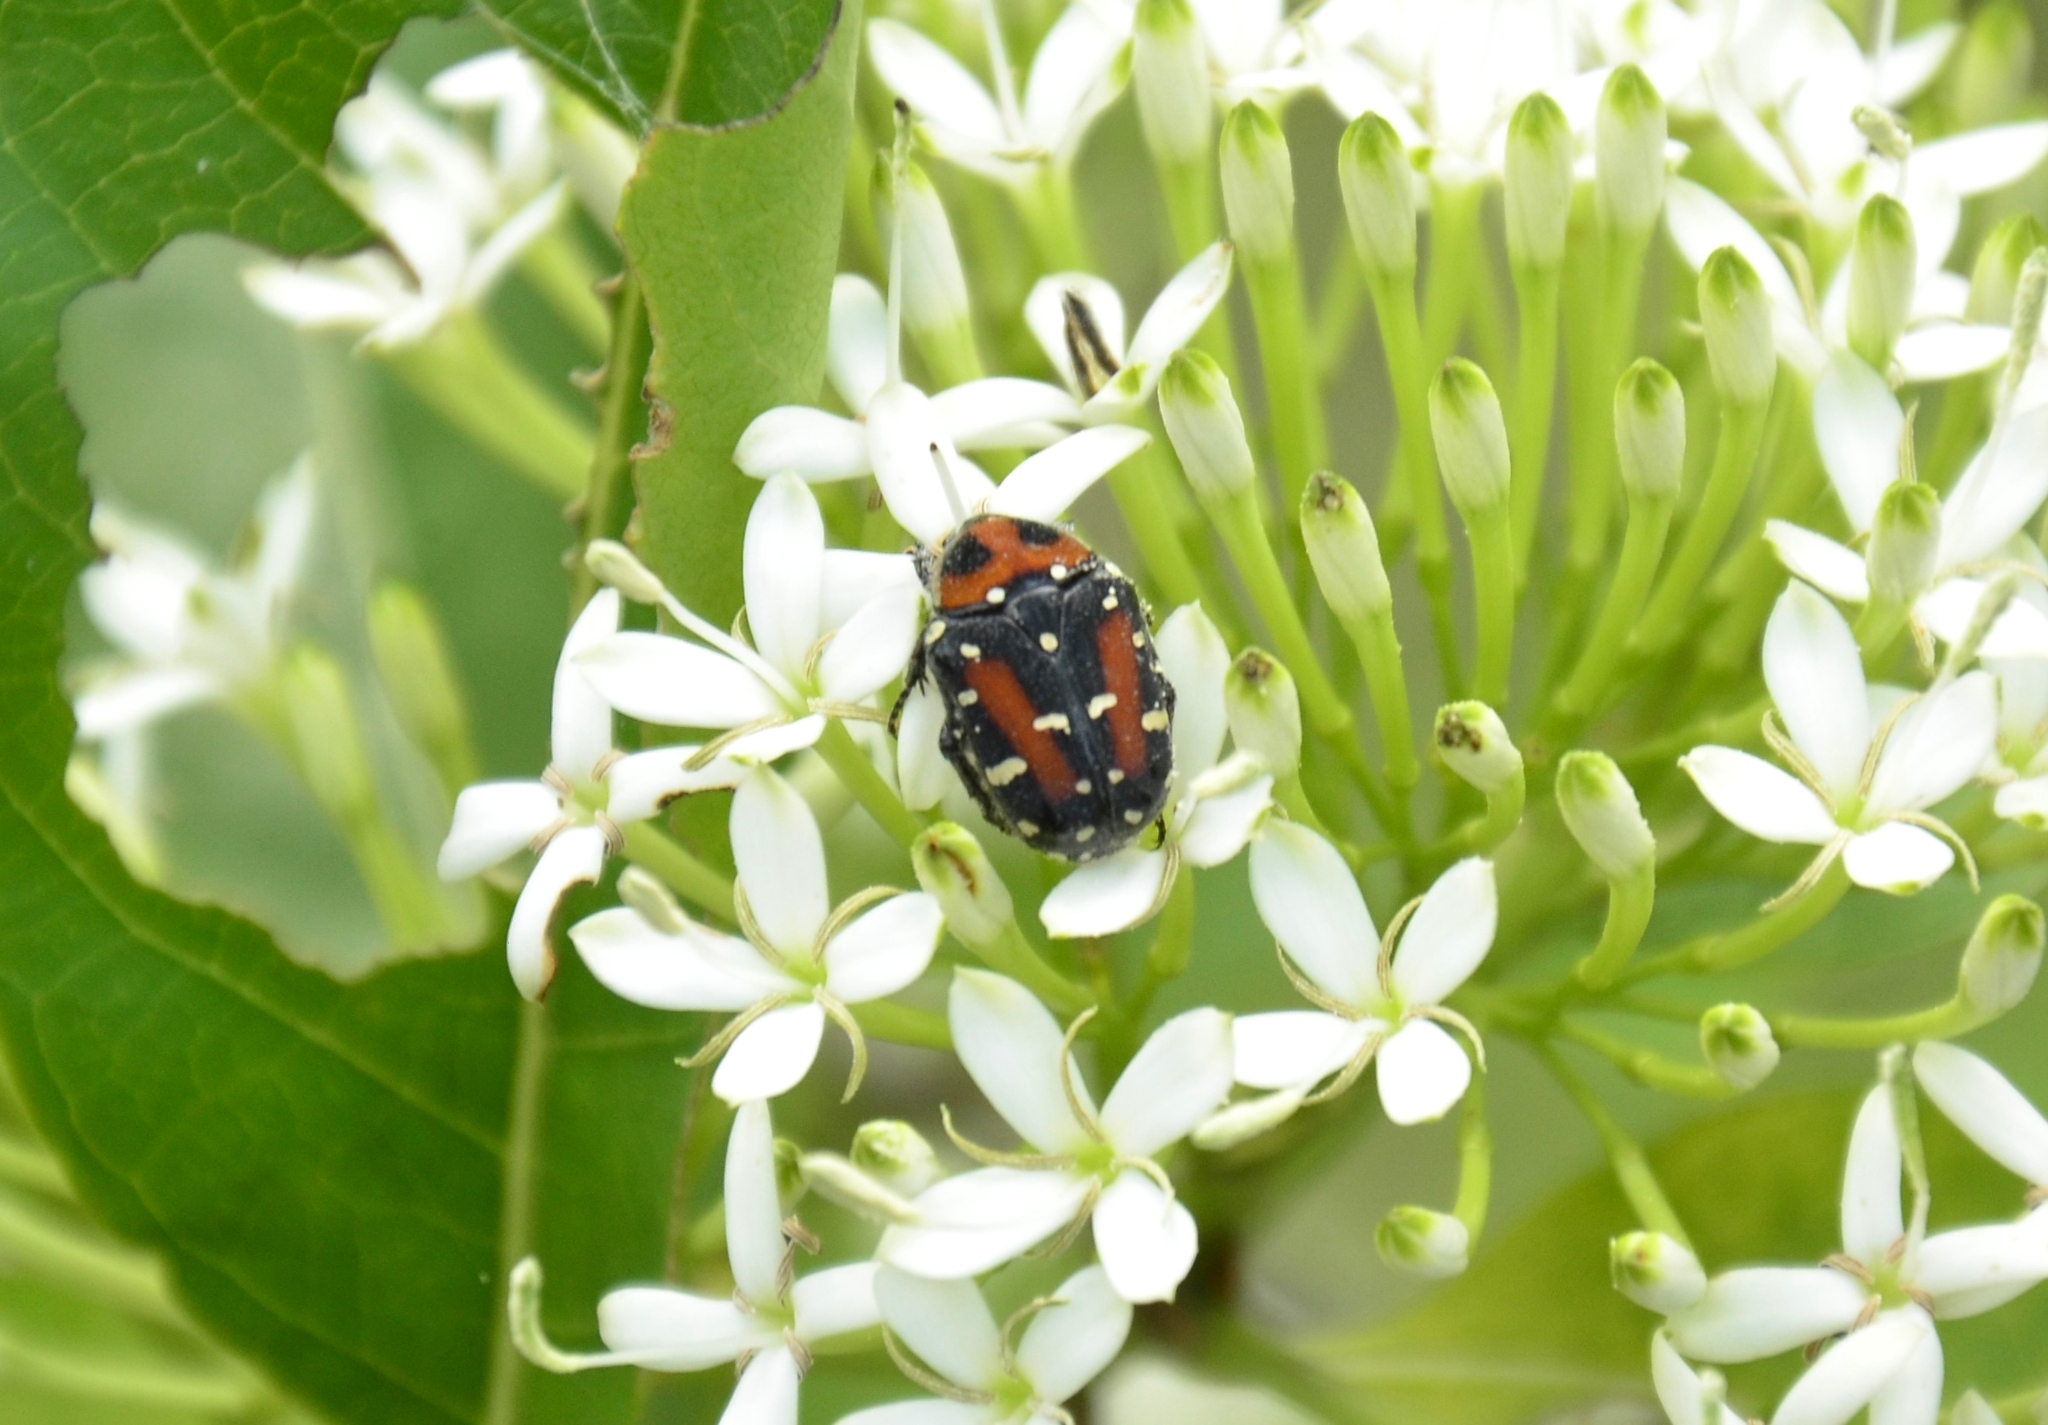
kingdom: Animalia
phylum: Arthropoda
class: Insecta
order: Coleoptera
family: Scarabaeidae
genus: Gametis
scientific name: Gametis versicolor
